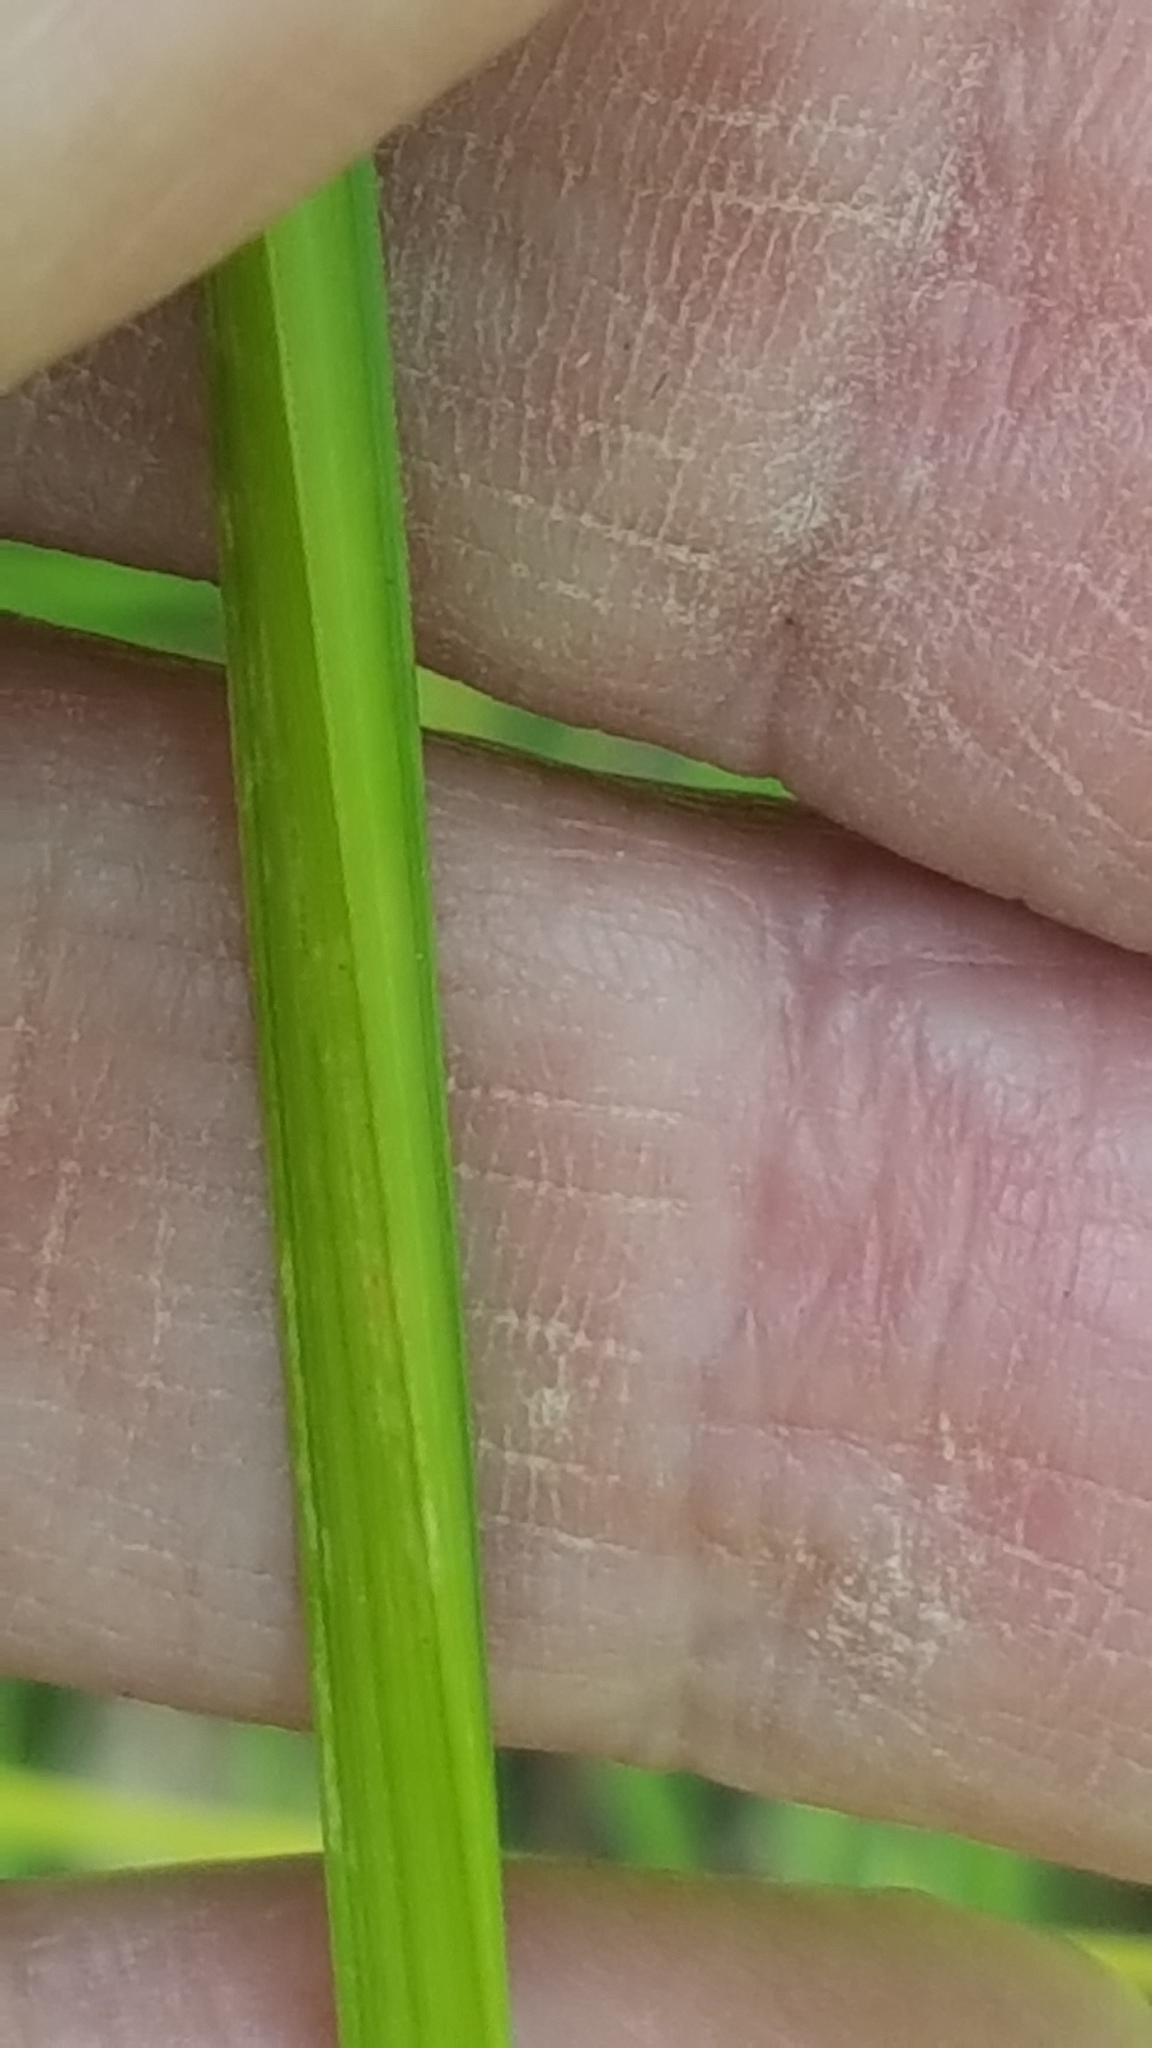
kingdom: Plantae
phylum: Tracheophyta
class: Liliopsida
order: Poales
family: Cyperaceae
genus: Carex
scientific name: Carex stipata
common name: Awl-fruited sedge
